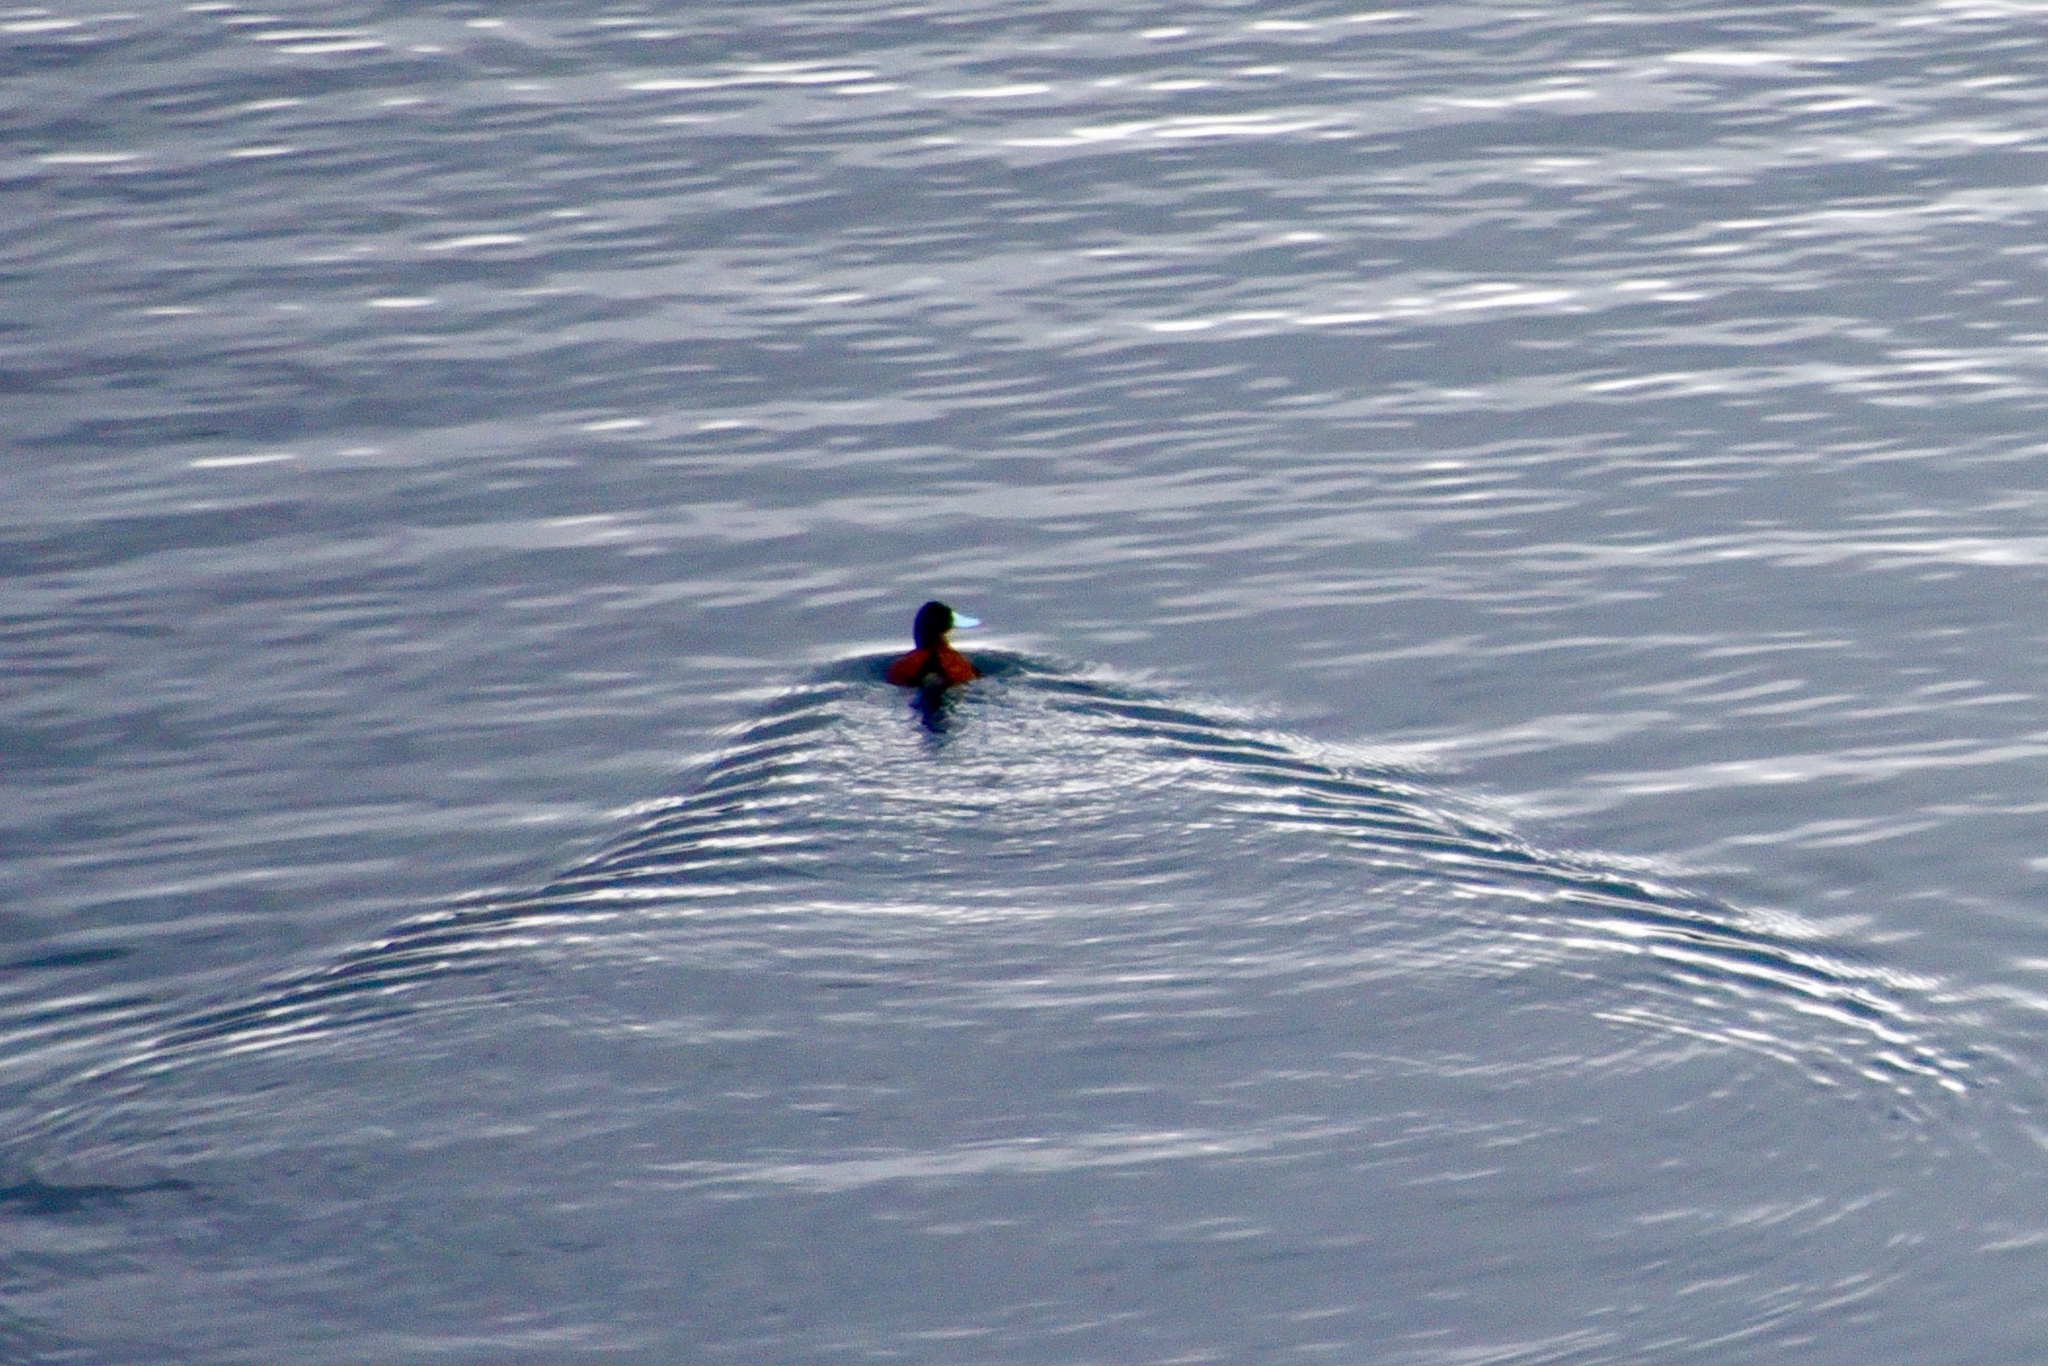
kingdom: Animalia
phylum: Chordata
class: Aves
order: Anseriformes
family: Anatidae
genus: Oxyura
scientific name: Oxyura ferruginea
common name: Andean duck
